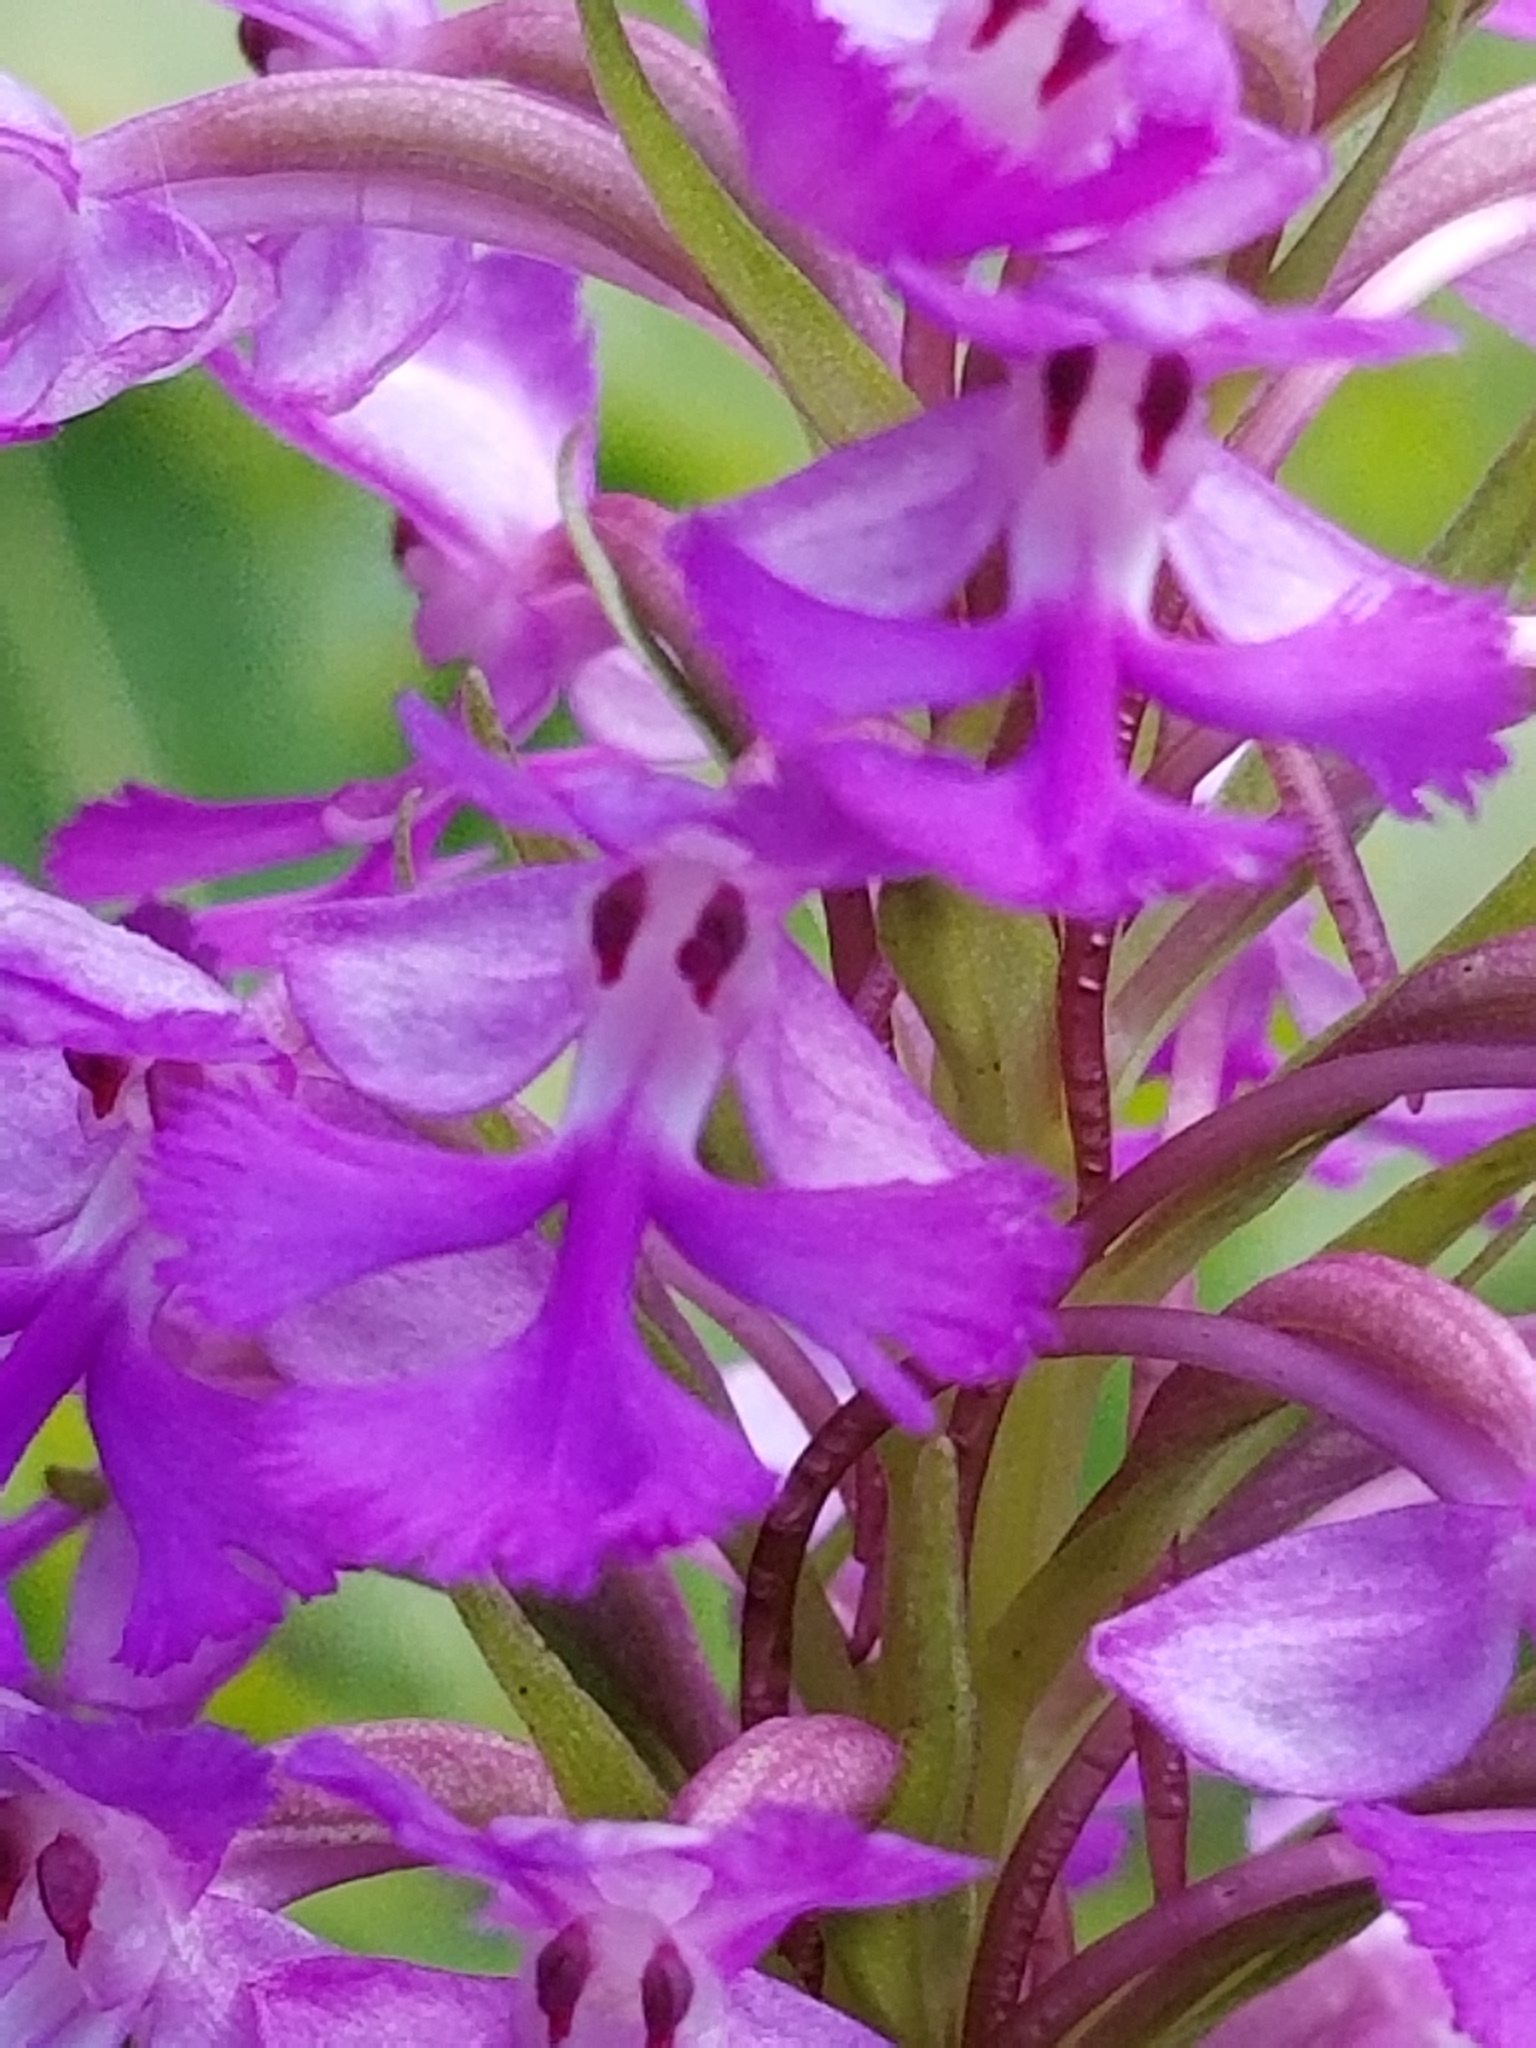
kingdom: Plantae
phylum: Tracheophyta
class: Liliopsida
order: Asparagales
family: Orchidaceae
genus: Platanthera
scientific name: Platanthera psycodes
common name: Lesser purple fringed orchid
